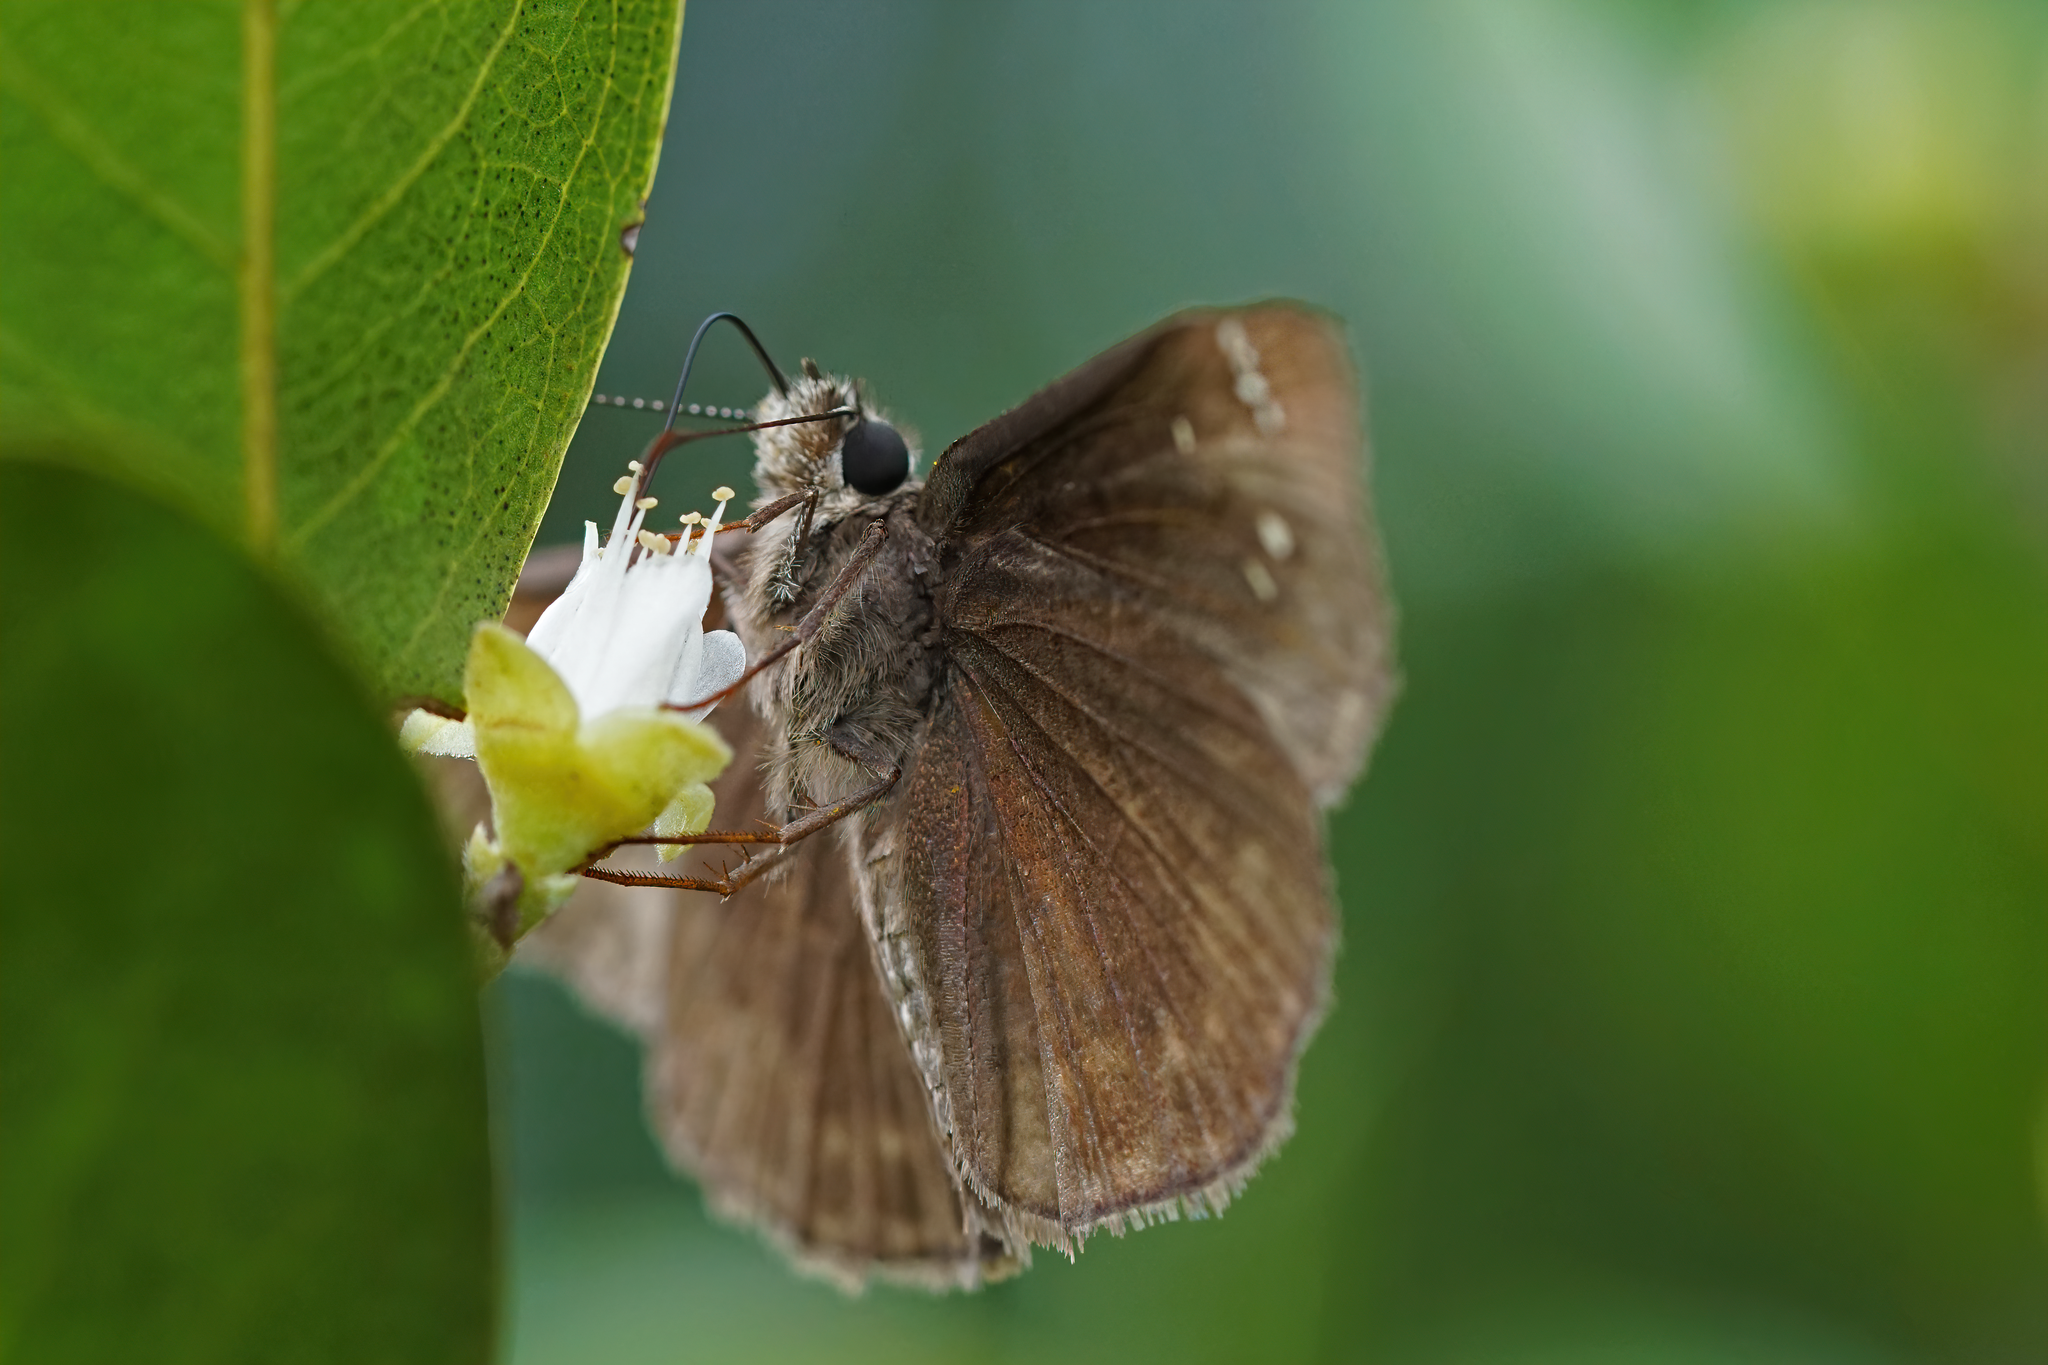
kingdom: Animalia
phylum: Arthropoda
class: Insecta
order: Lepidoptera
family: Hesperiidae
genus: Erynnis
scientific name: Erynnis horatius
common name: Horace's duskywing
